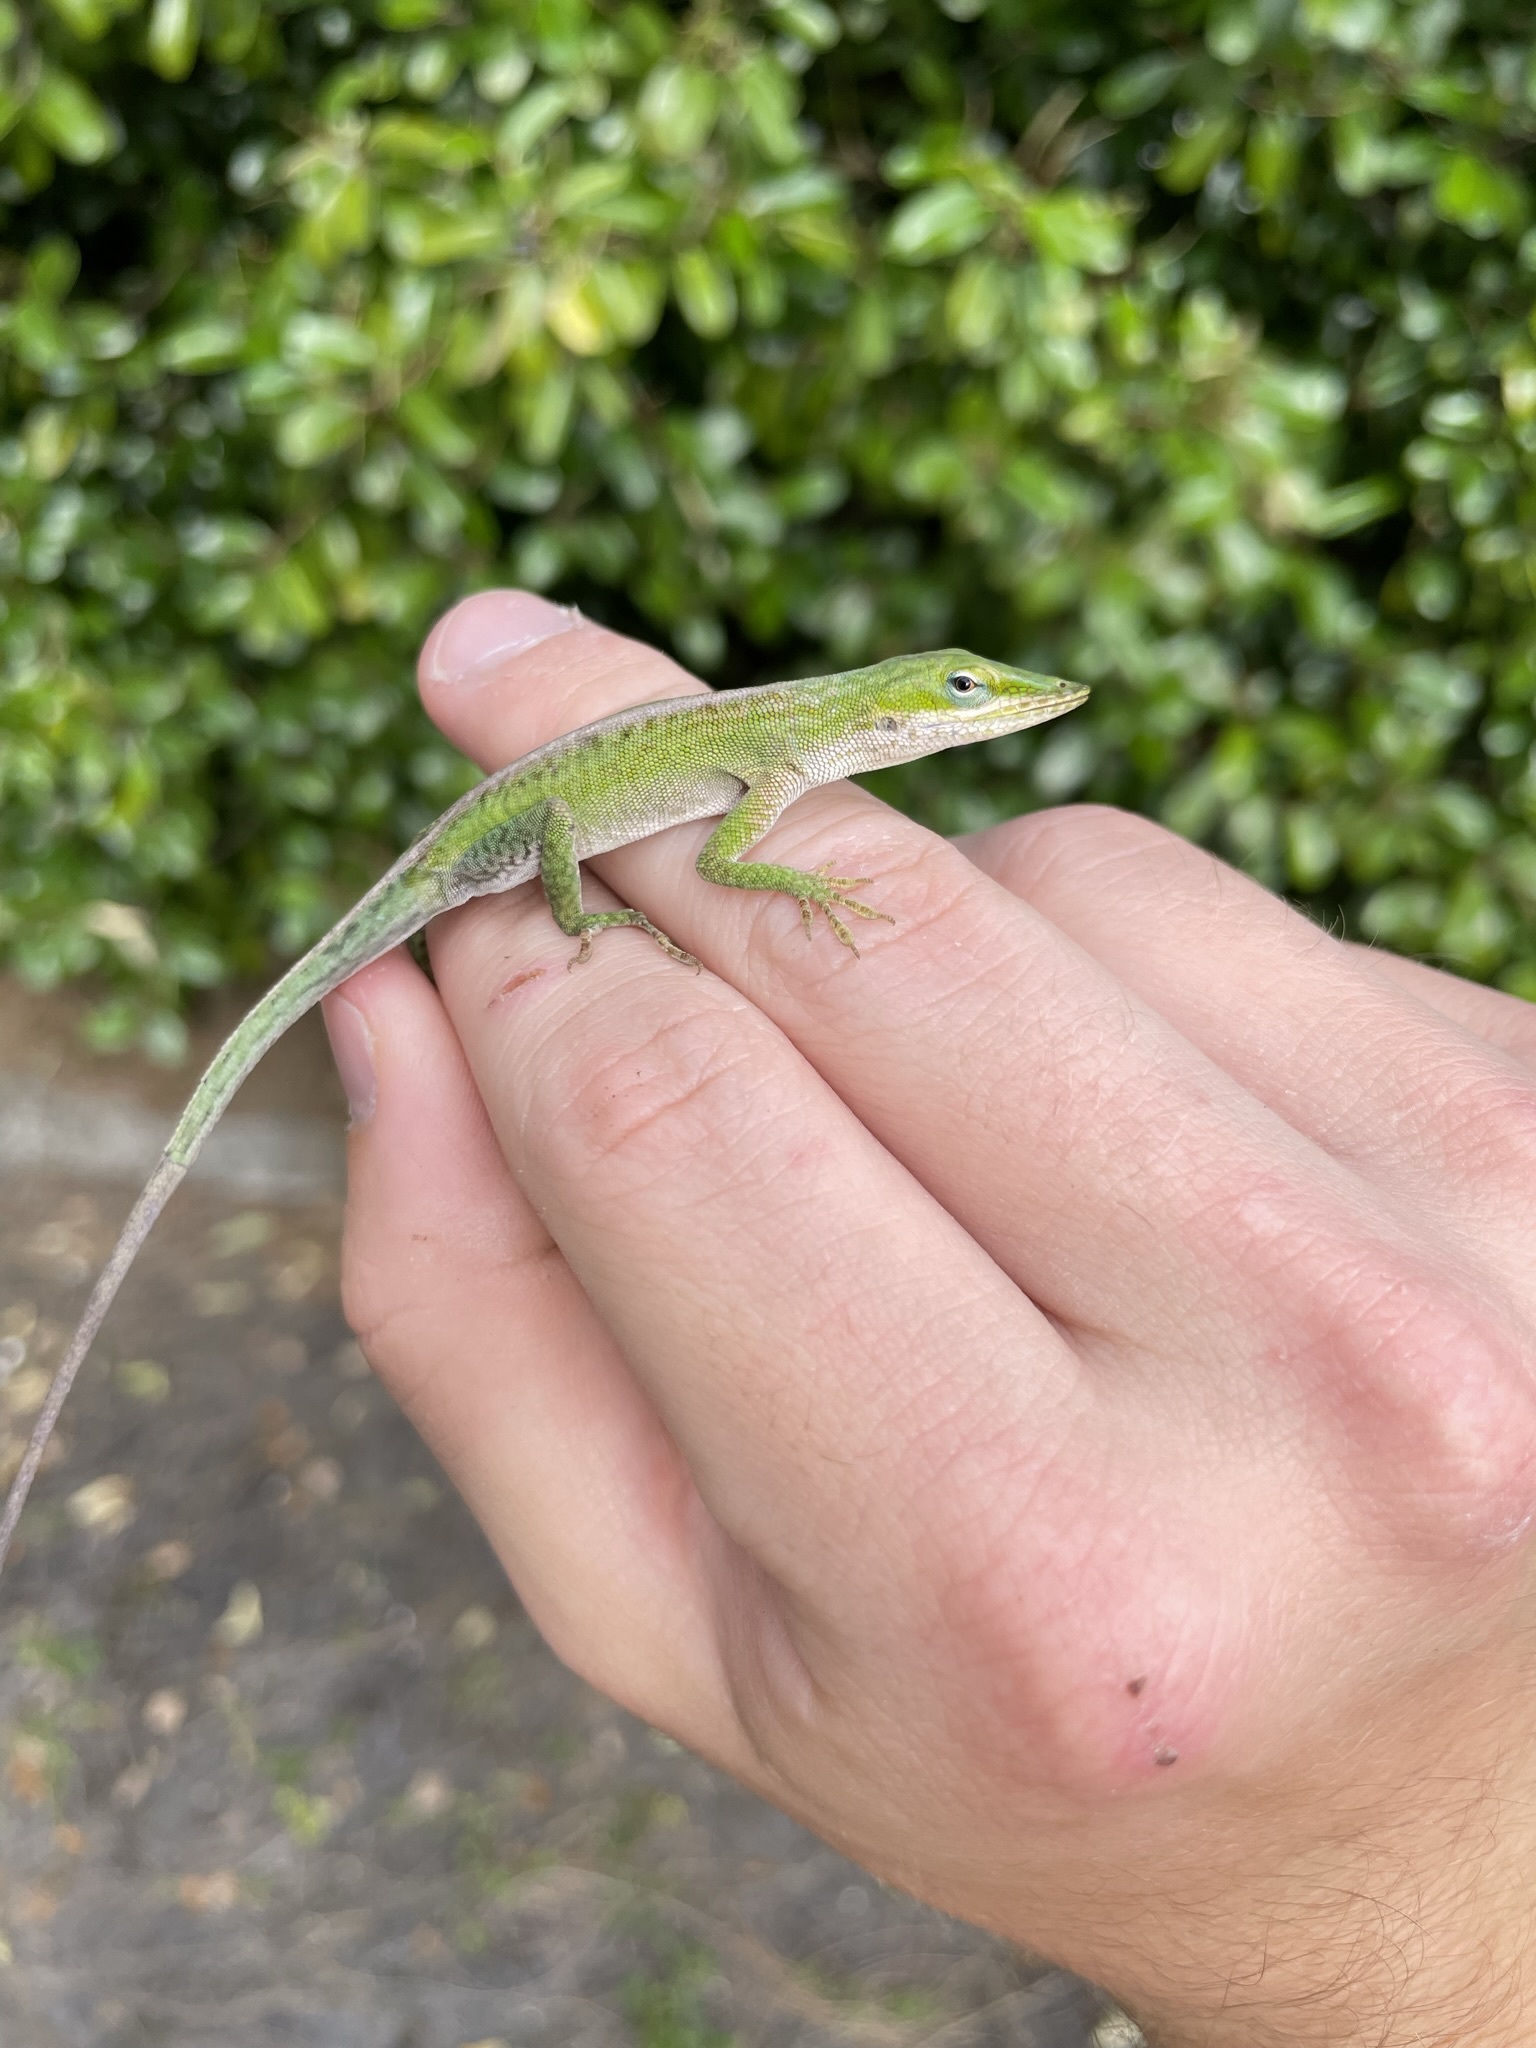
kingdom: Animalia
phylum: Chordata
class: Squamata
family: Dactyloidae
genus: Anolis
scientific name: Anolis carolinensis
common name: Green anole
